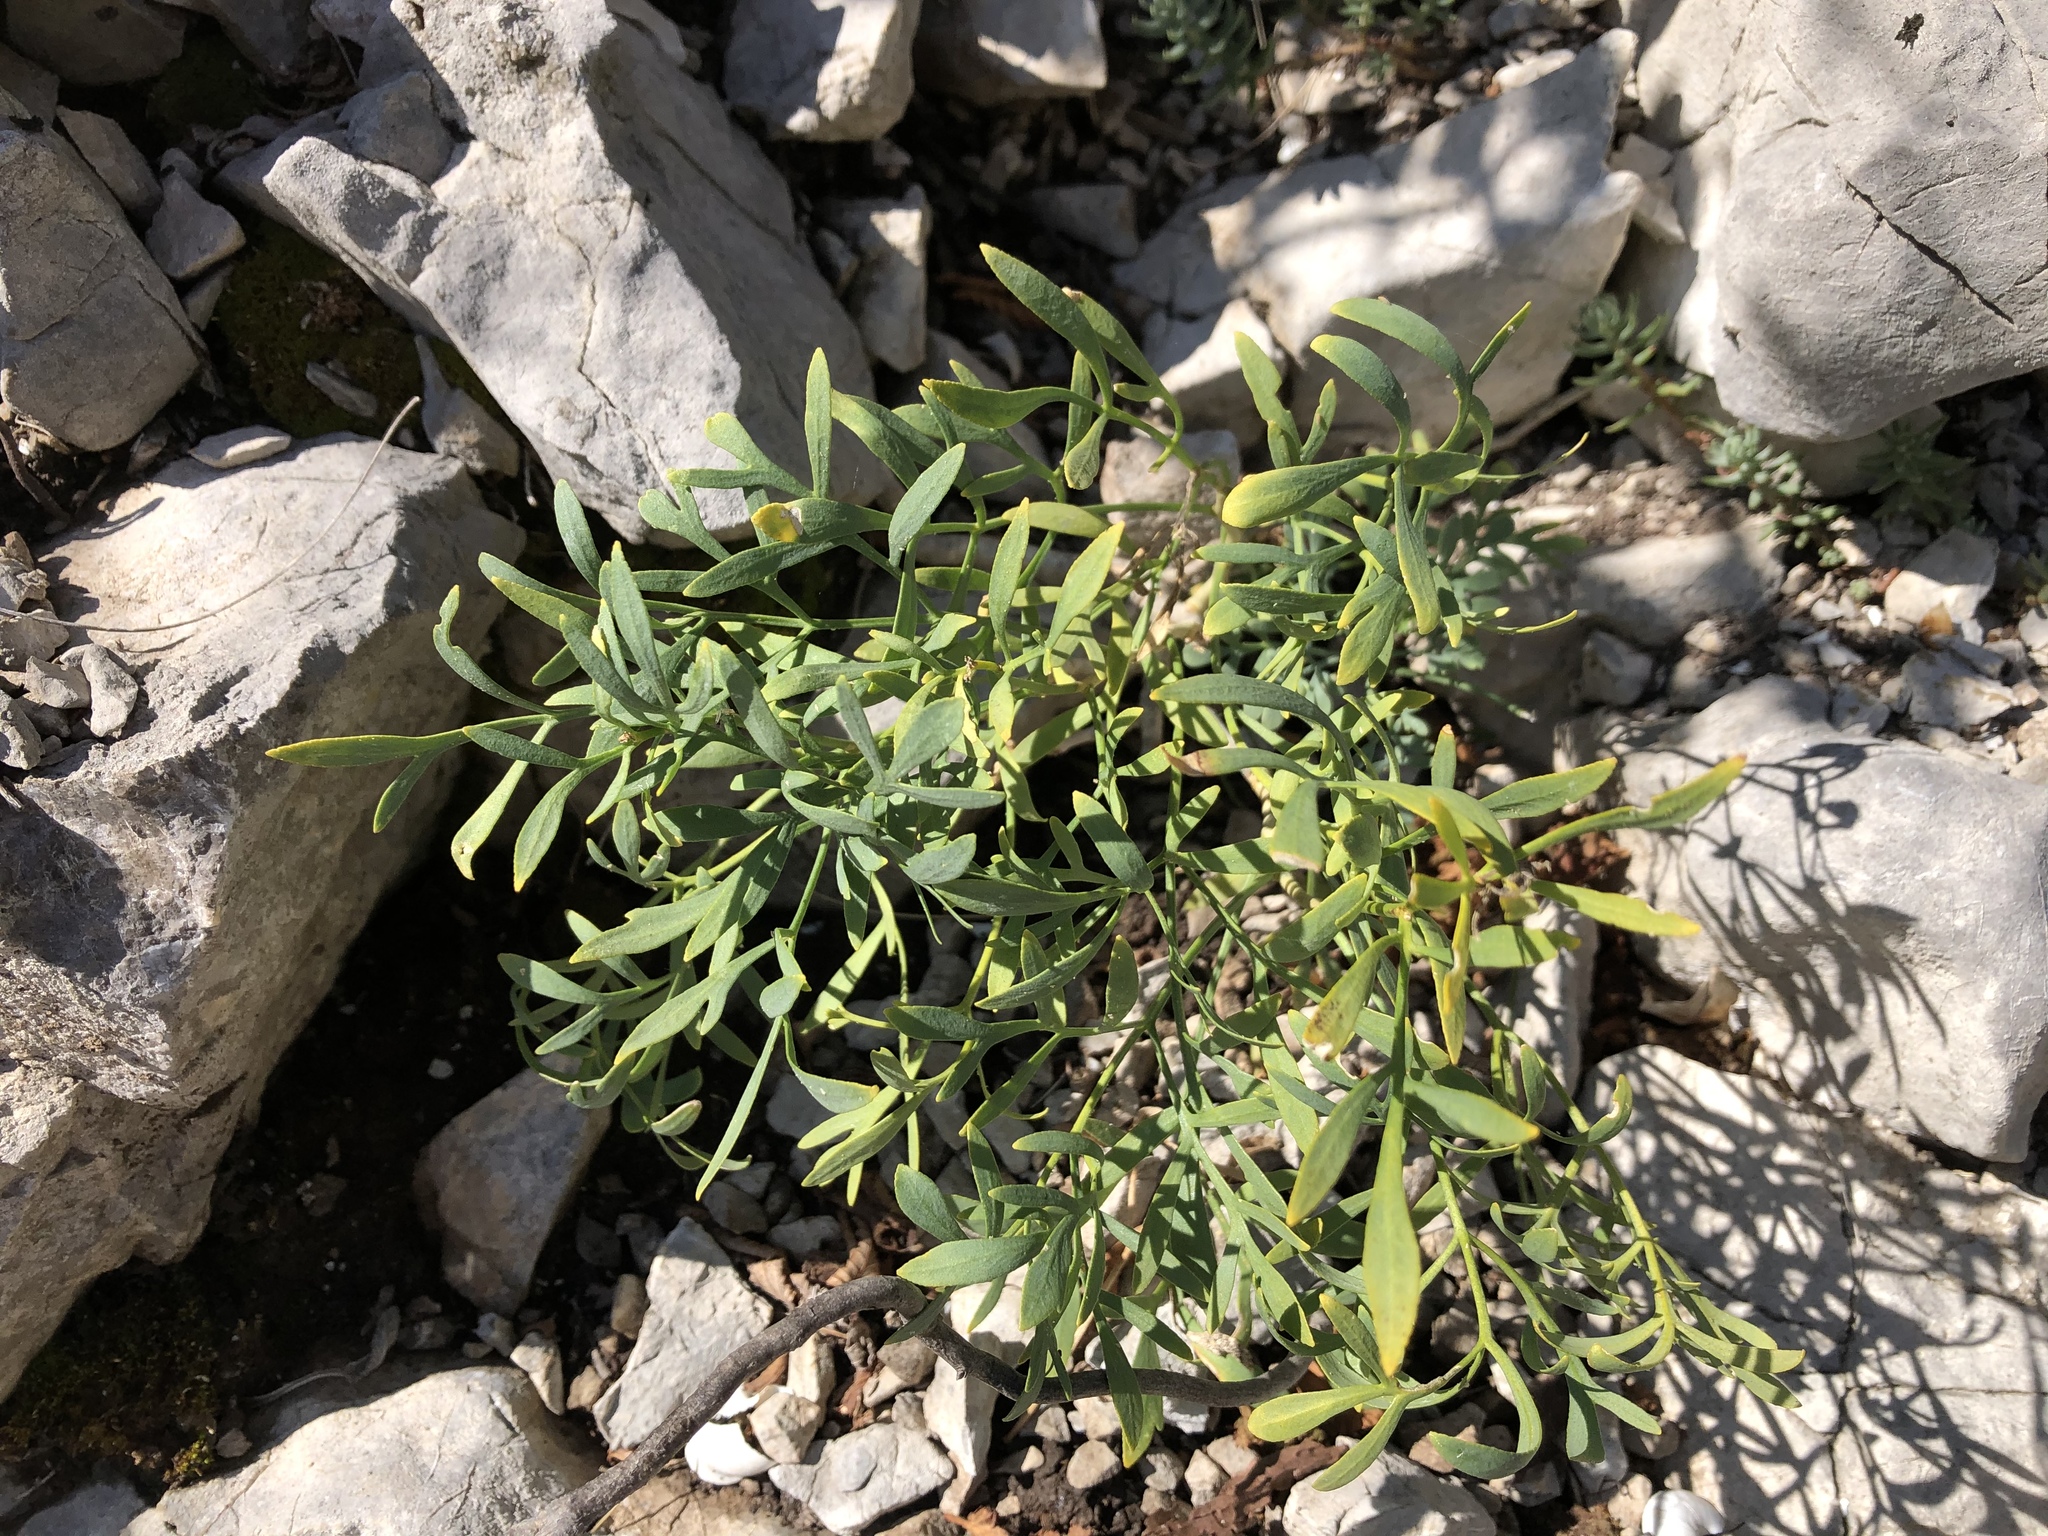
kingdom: Plantae
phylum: Tracheophyta
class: Magnoliopsida
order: Apiales
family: Apiaceae
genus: Crithmum
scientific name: Crithmum maritimum
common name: Rock samphire
